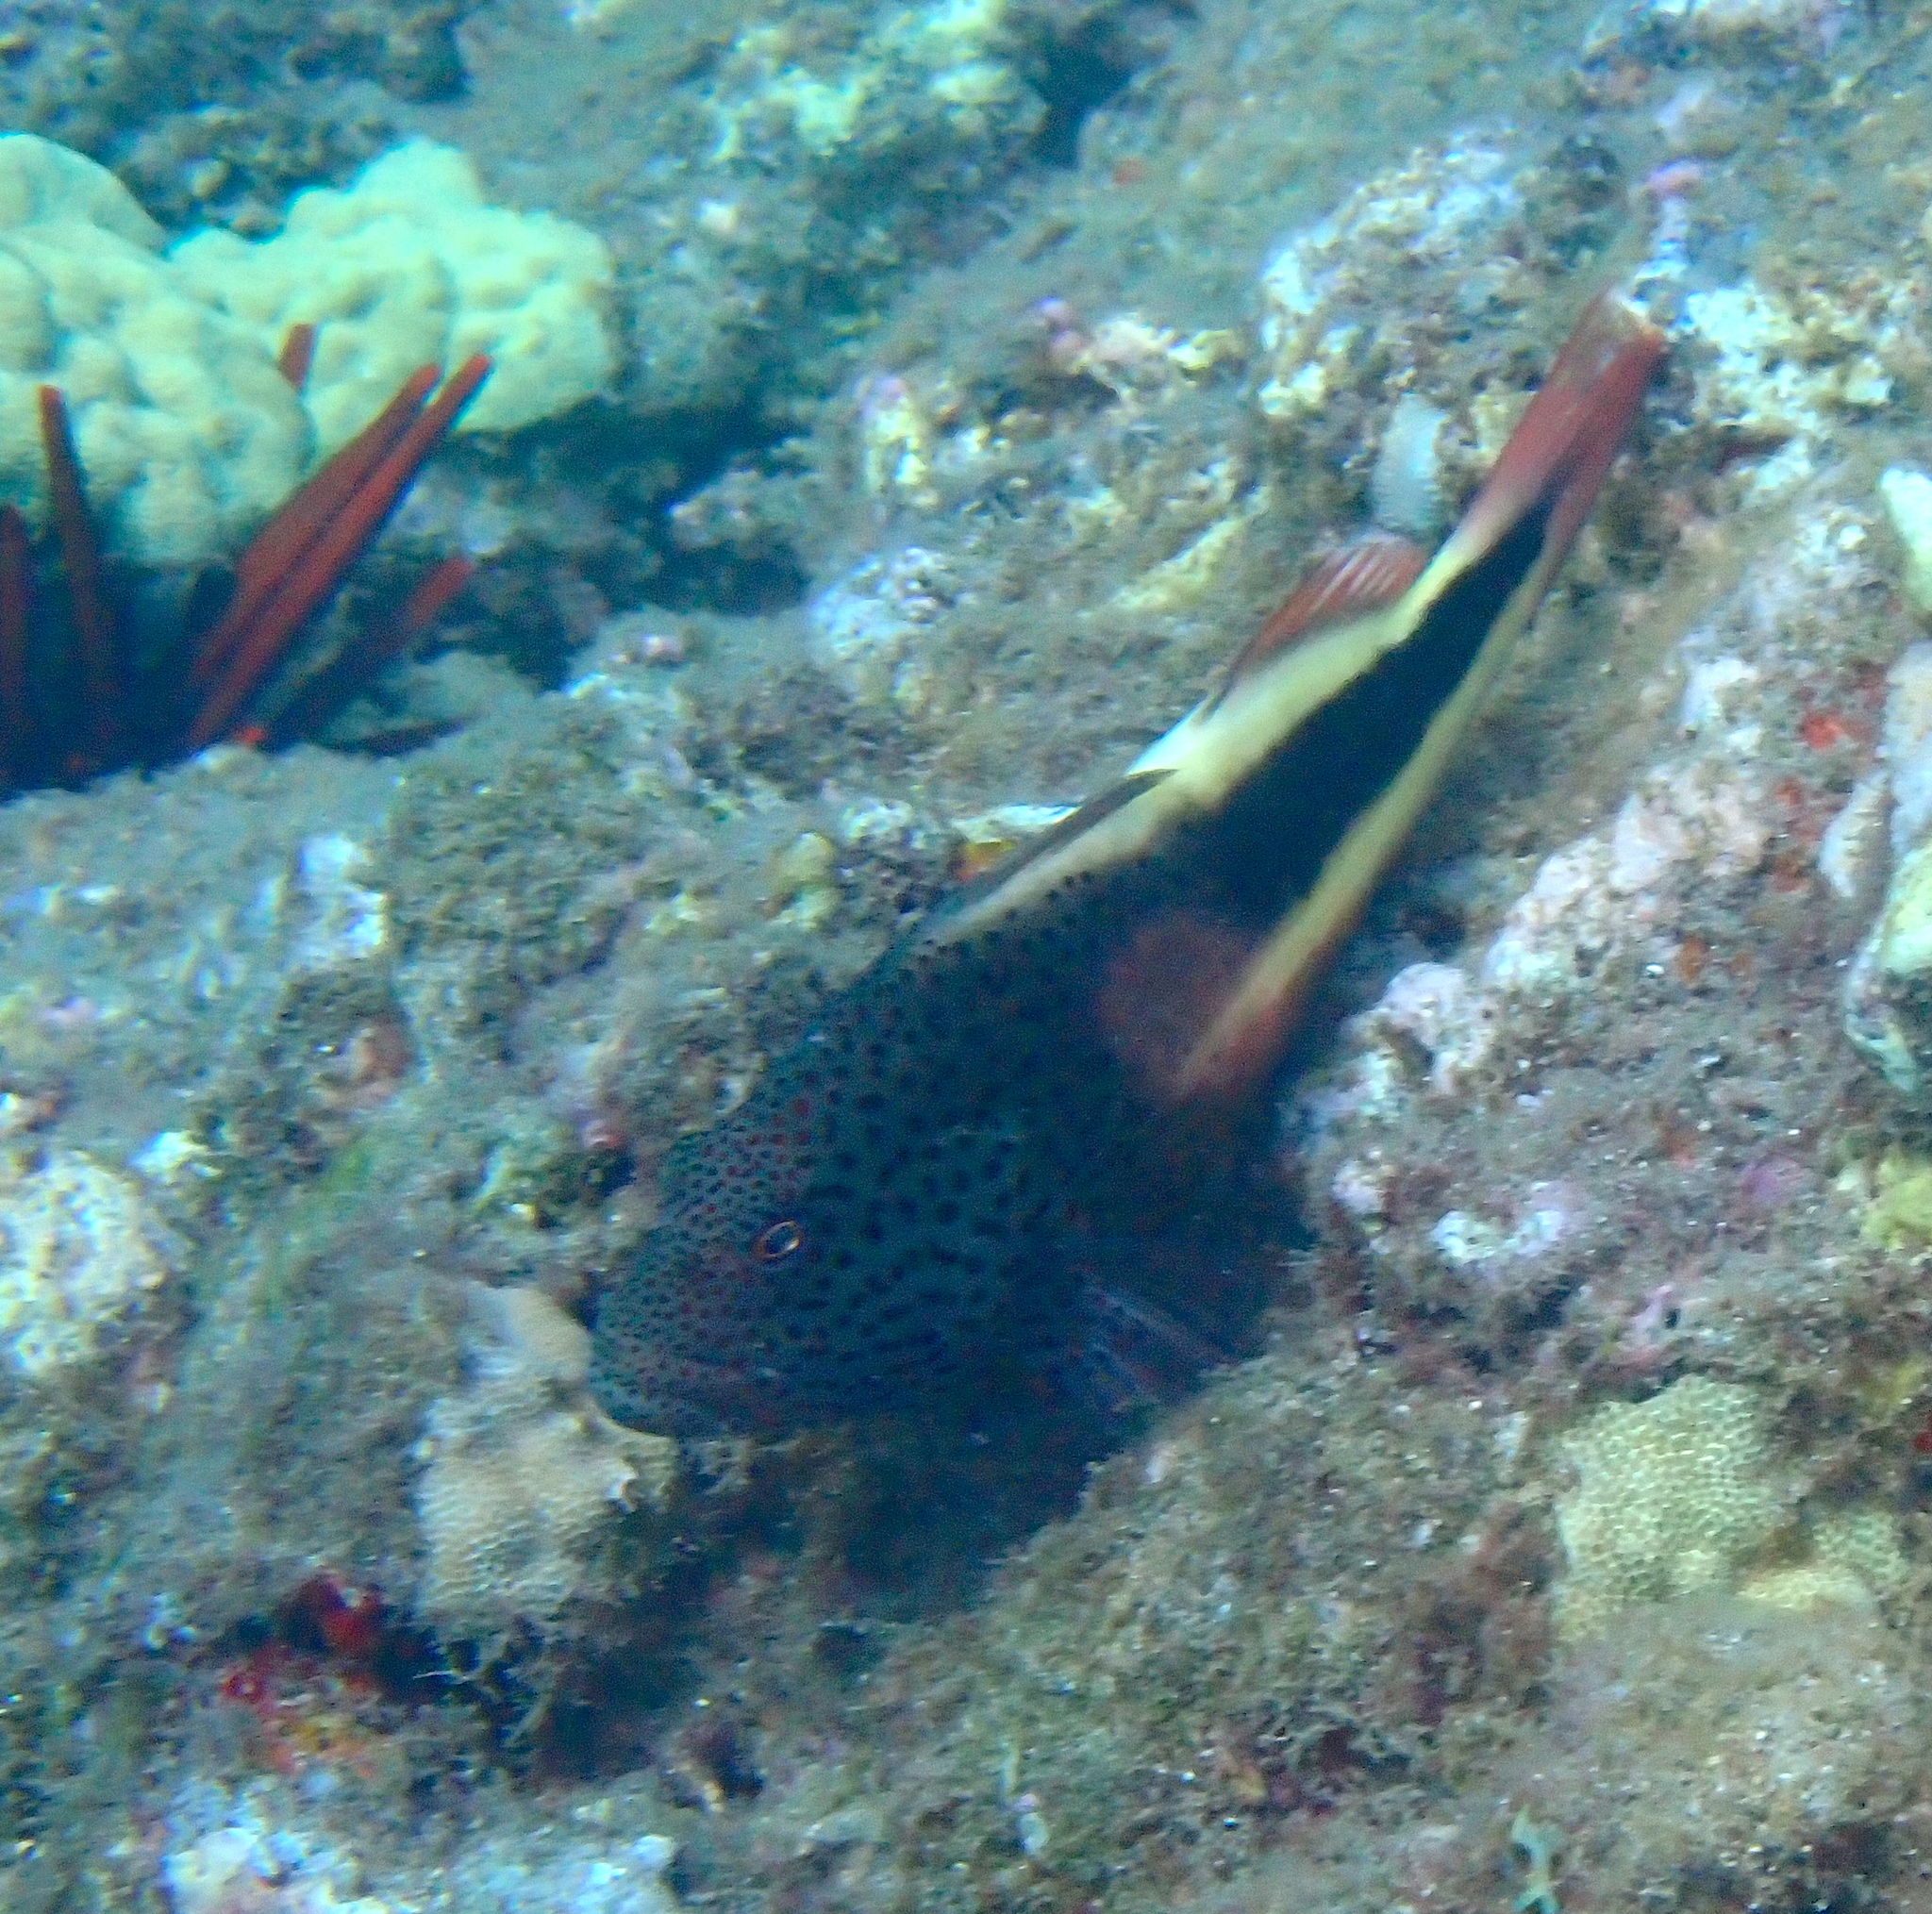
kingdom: Animalia
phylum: Chordata
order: Perciformes
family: Cirrhitidae
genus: Paracirrhites
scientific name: Paracirrhites forsteri
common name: Freckled hawkfish
